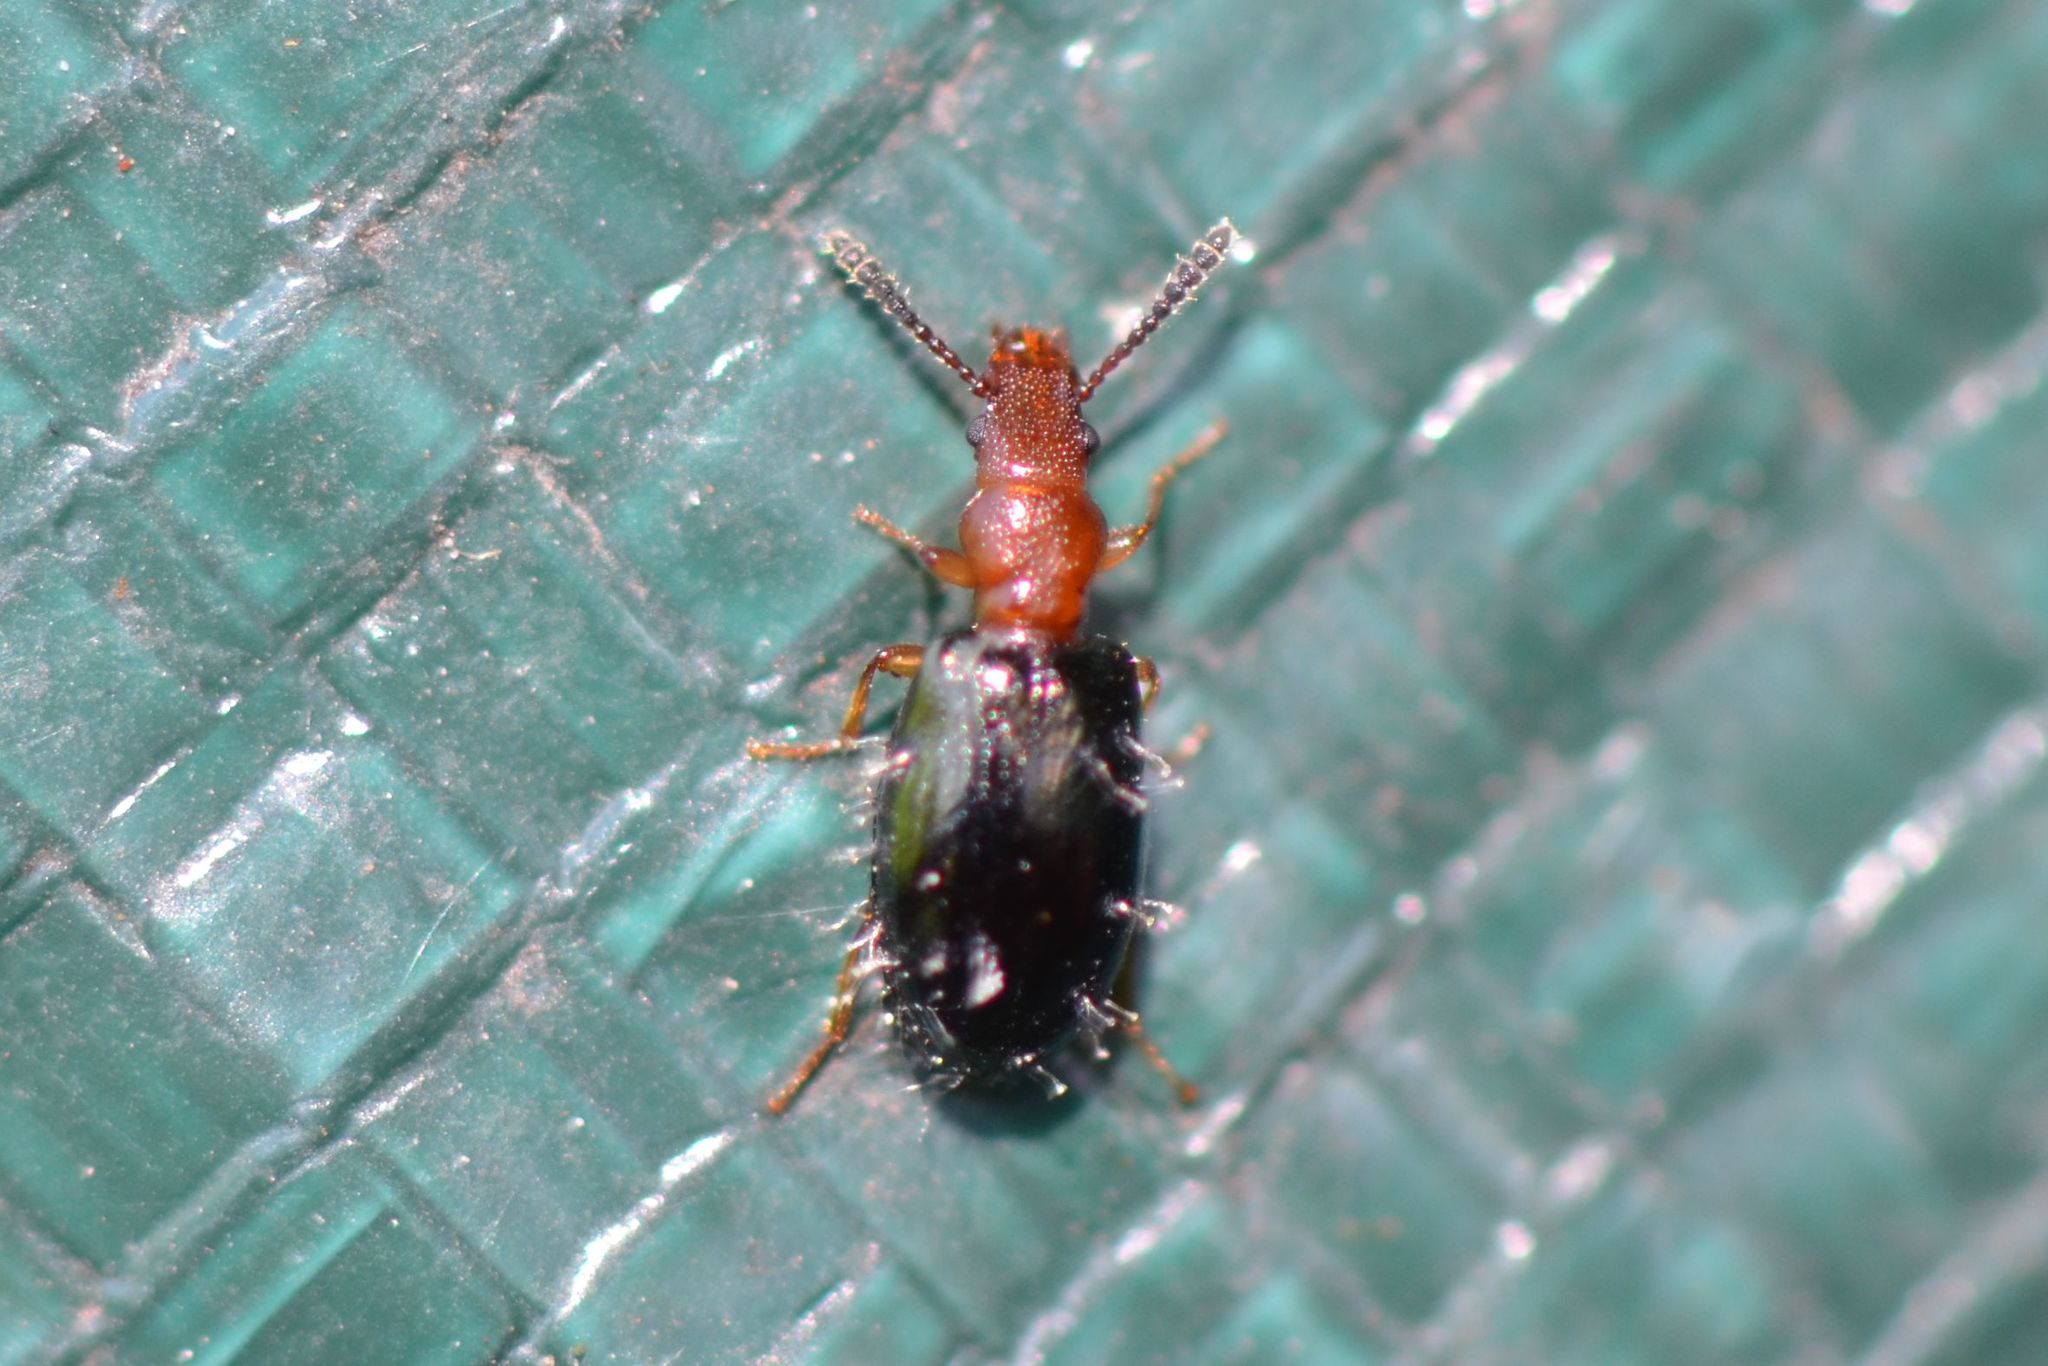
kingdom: Animalia
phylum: Arthropoda
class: Insecta
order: Coleoptera
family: Salpingidae
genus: Vincenzellus
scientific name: Vincenzellus ruficollis
